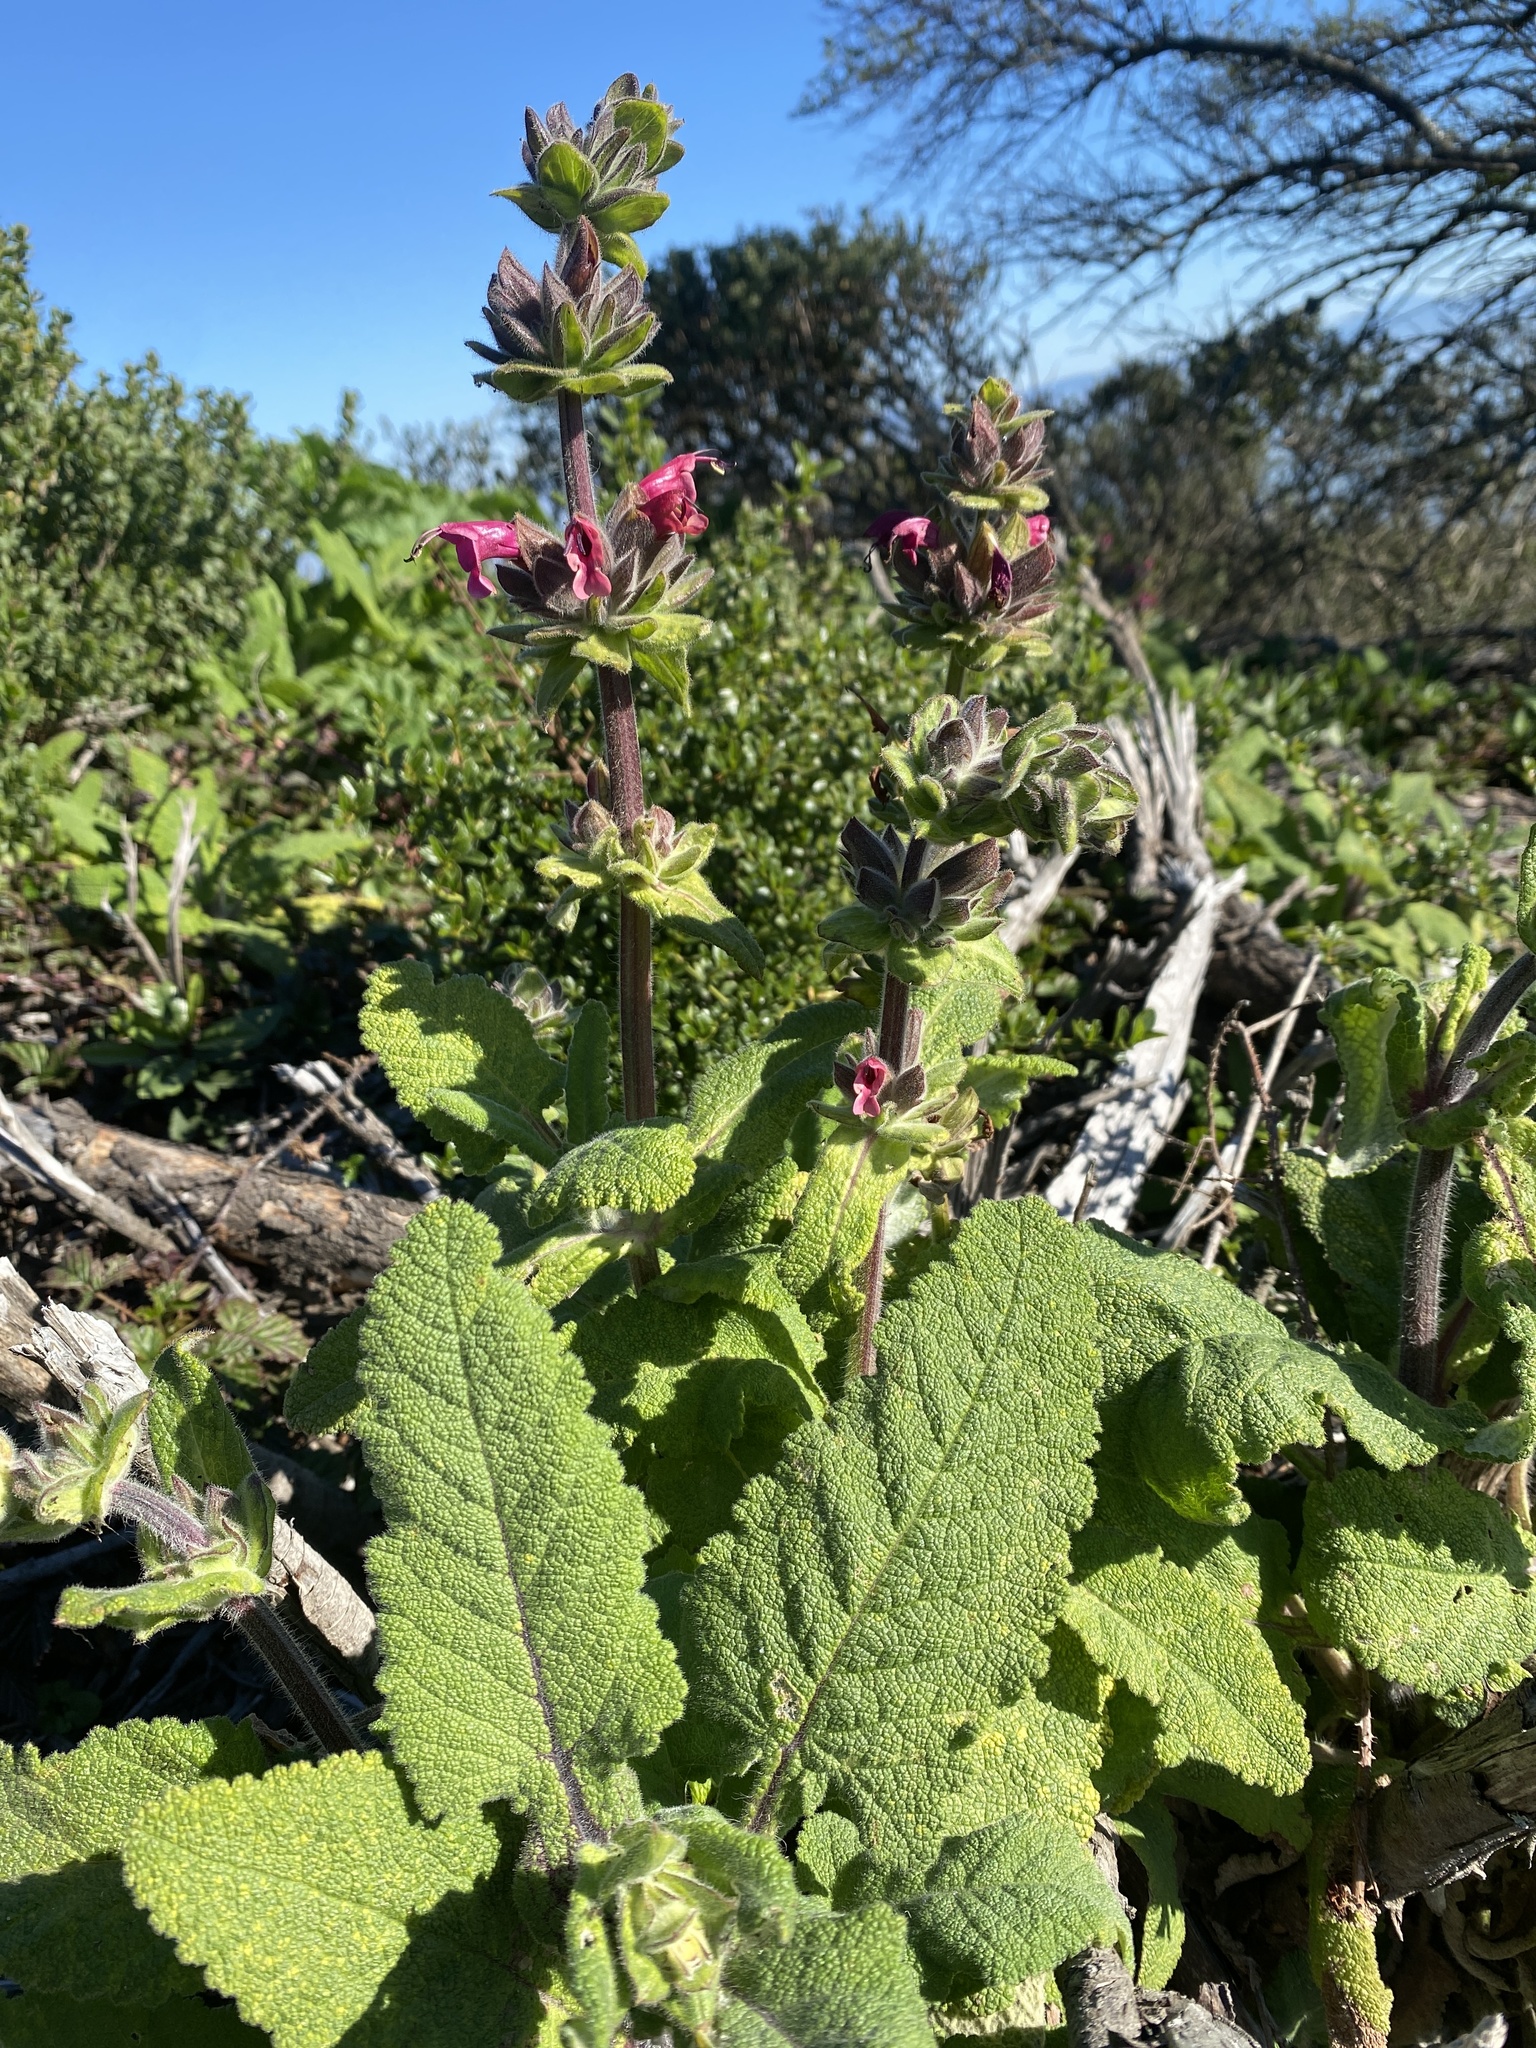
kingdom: Plantae
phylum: Tracheophyta
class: Magnoliopsida
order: Lamiales
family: Lamiaceae
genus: Salvia
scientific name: Salvia spathacea
